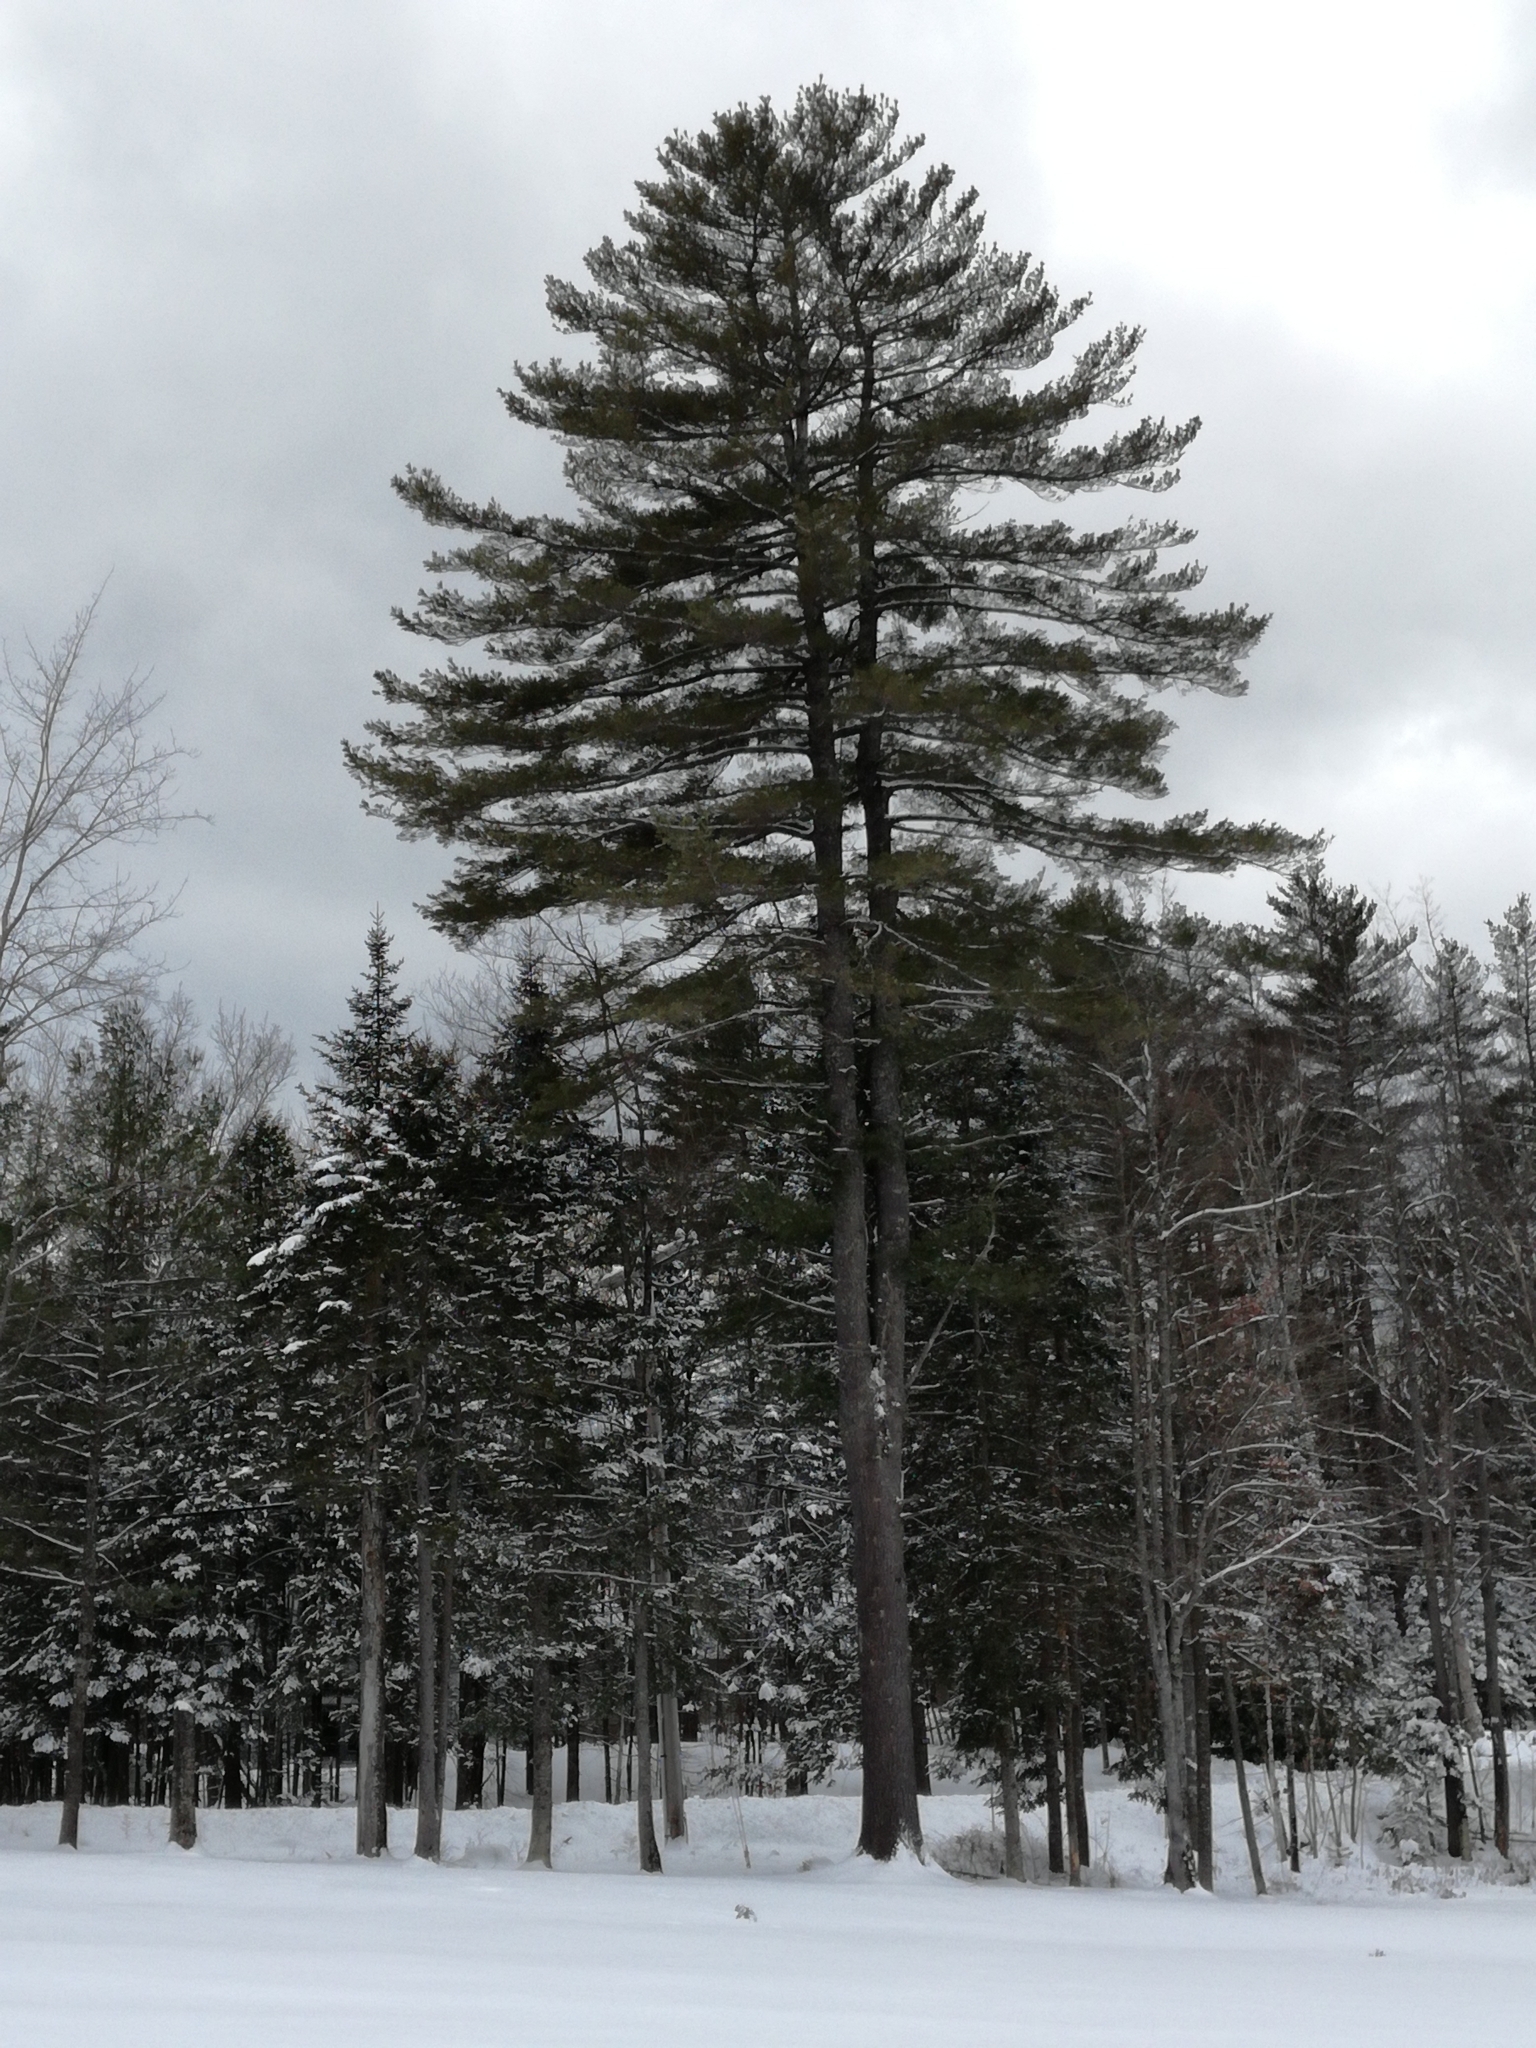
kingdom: Plantae
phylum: Tracheophyta
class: Pinopsida
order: Pinales
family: Pinaceae
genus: Pinus
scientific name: Pinus strobus
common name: Weymouth pine
